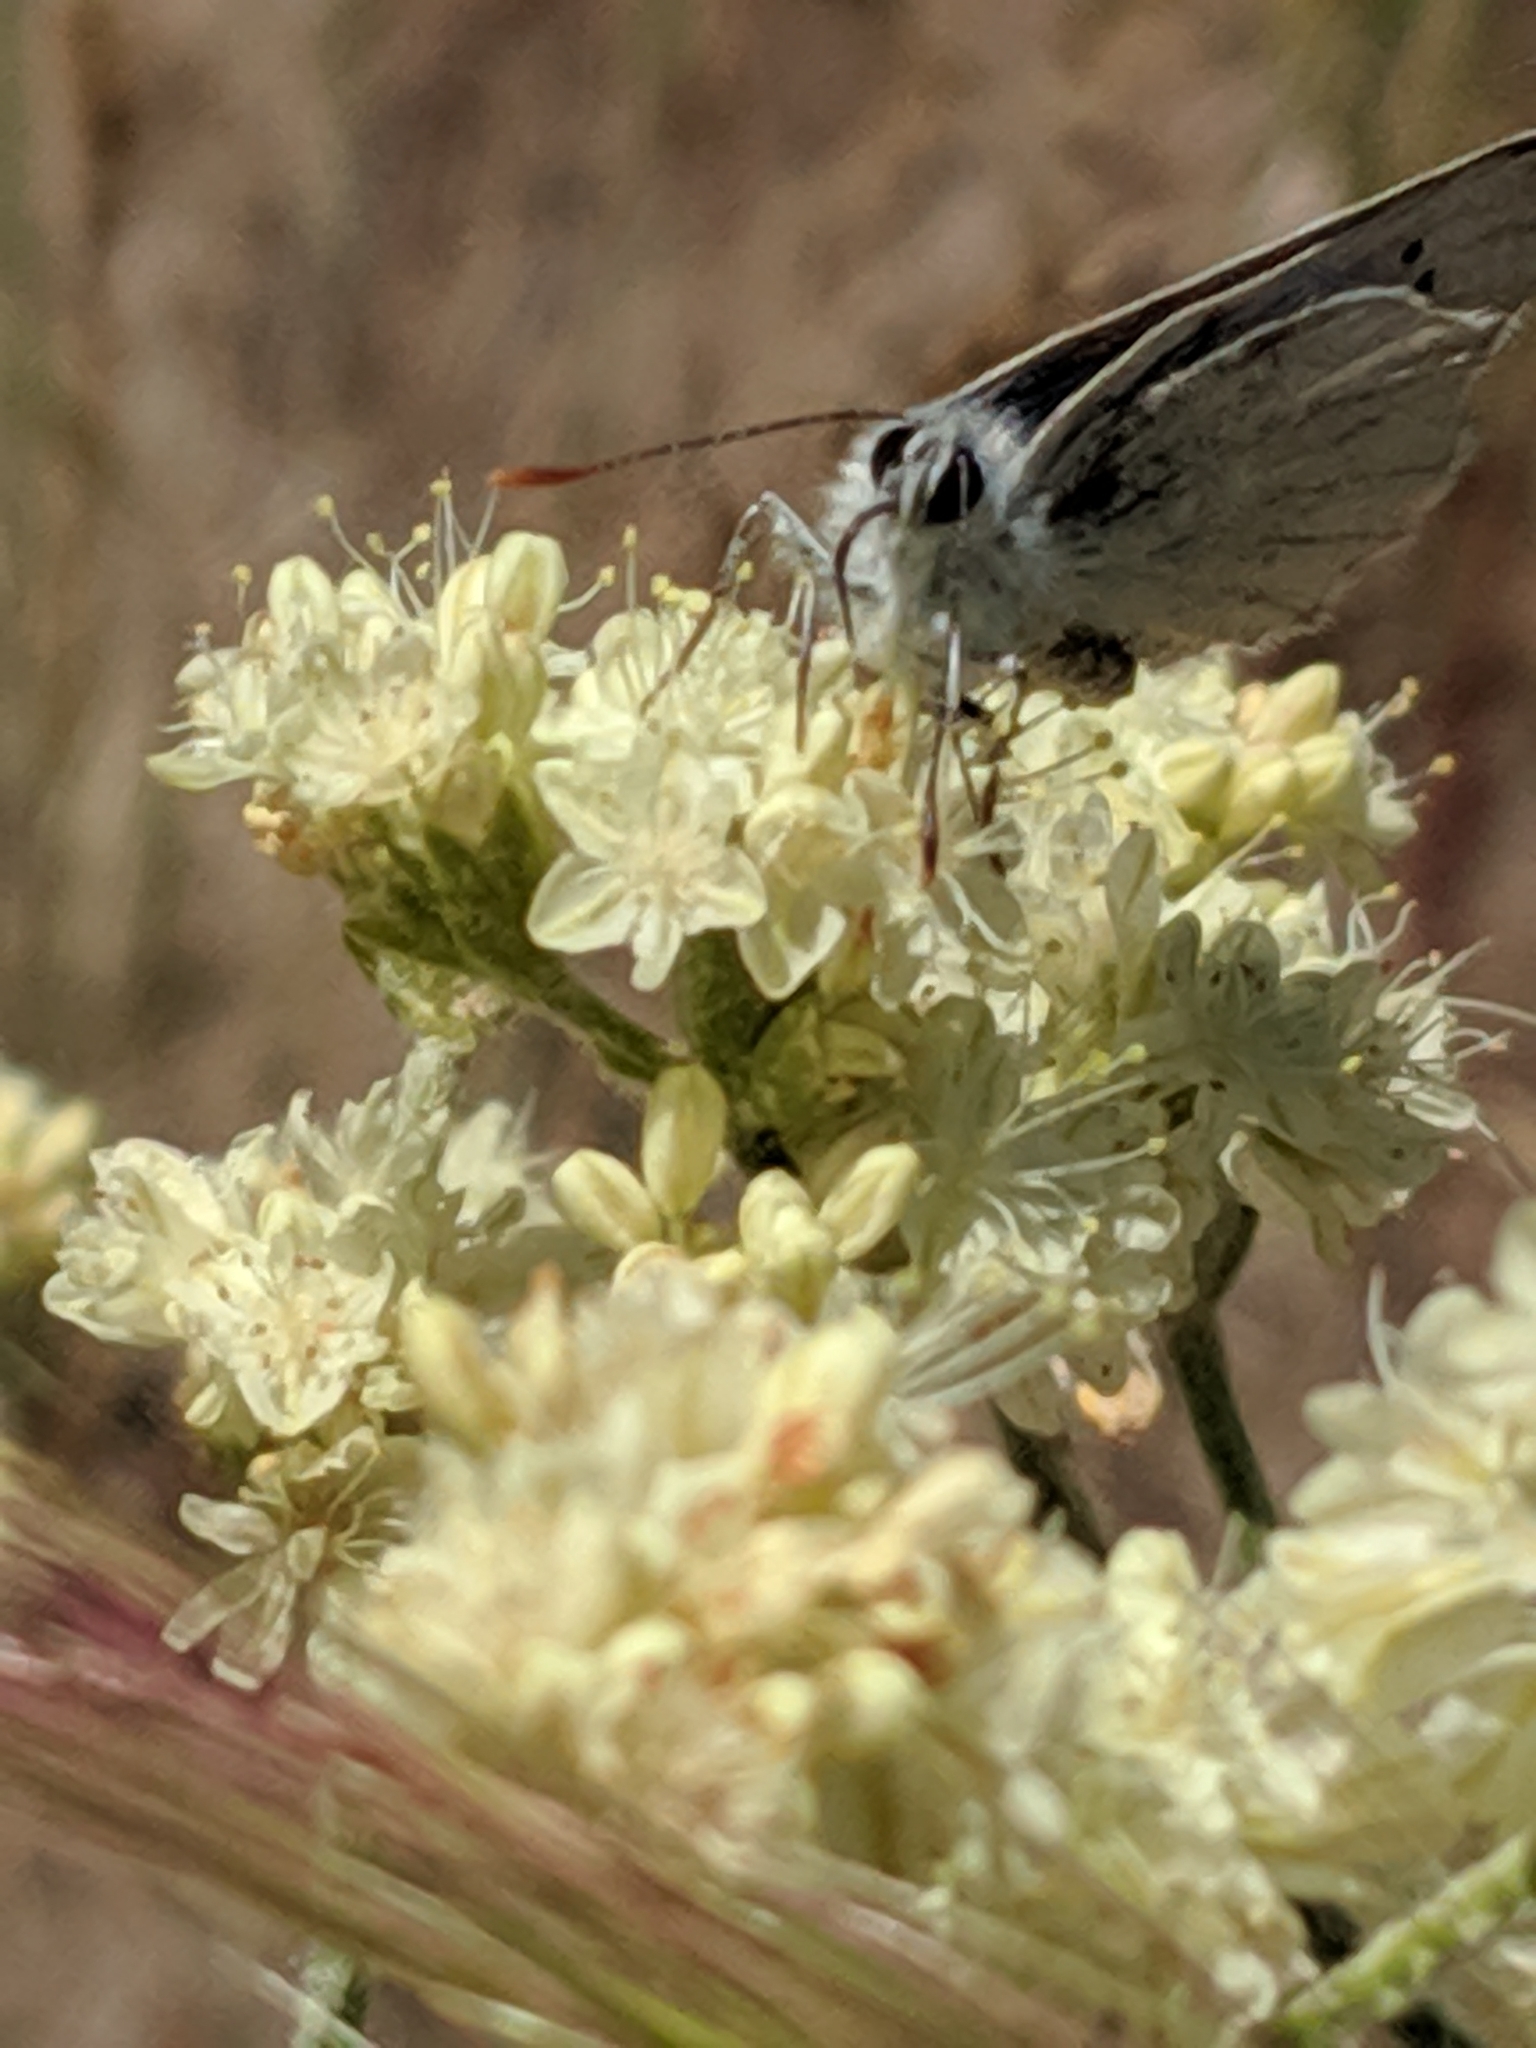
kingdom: Animalia
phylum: Arthropoda
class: Insecta
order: Lepidoptera
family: Lycaenidae
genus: Tharsalea
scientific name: Tharsalea heteronea
